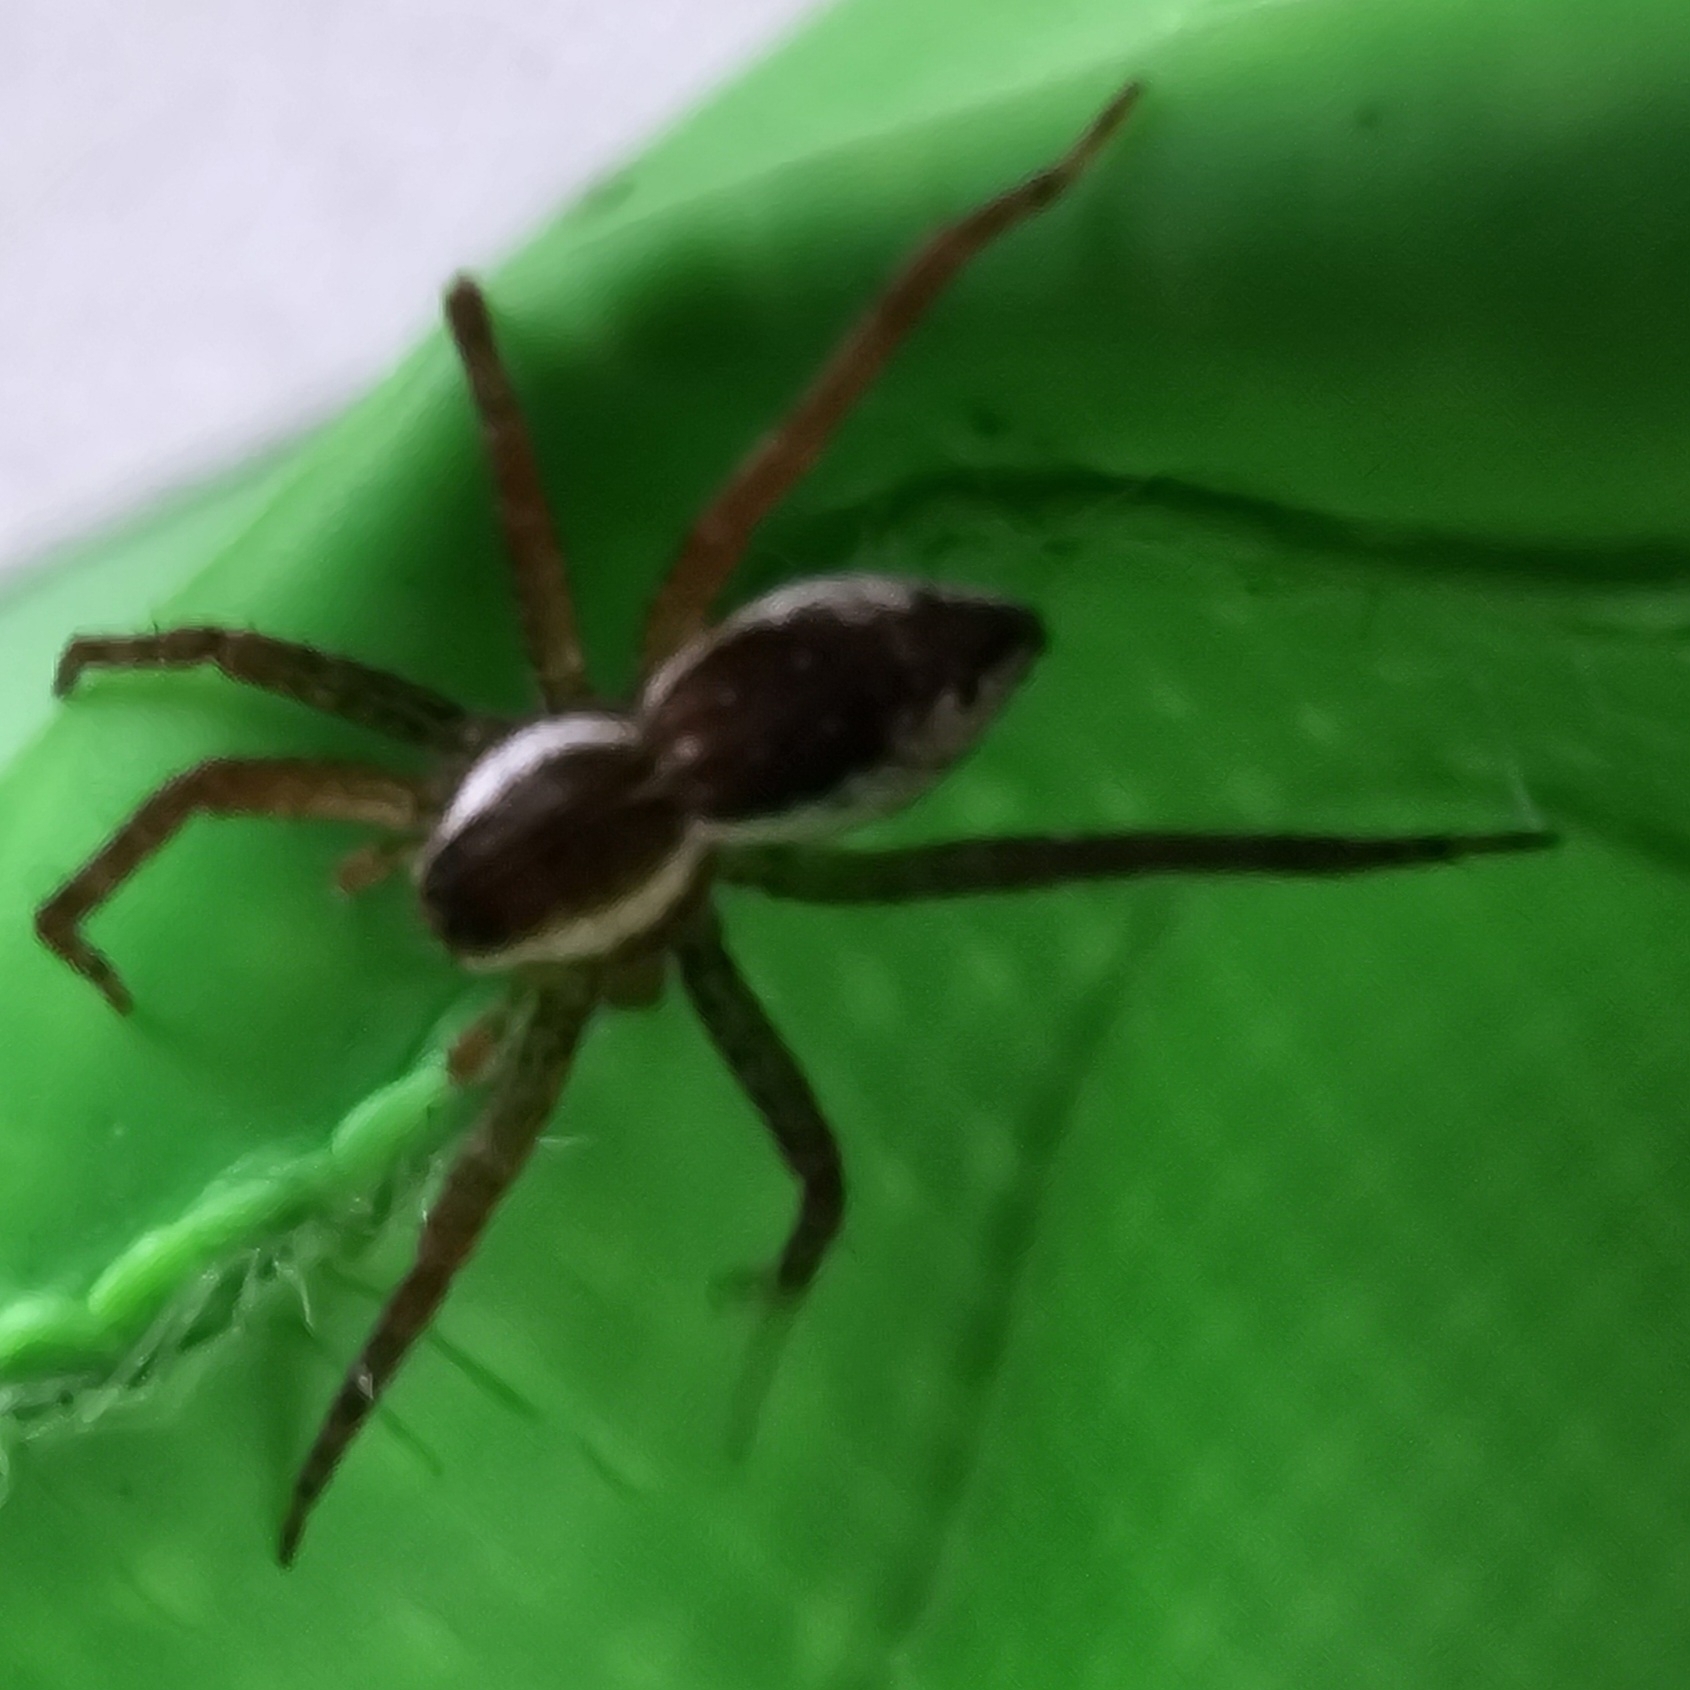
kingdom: Animalia
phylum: Arthropoda
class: Arachnida
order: Araneae
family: Pisauridae
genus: Dolomedes
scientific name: Dolomedes triton
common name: Six-spotted fishing spider
